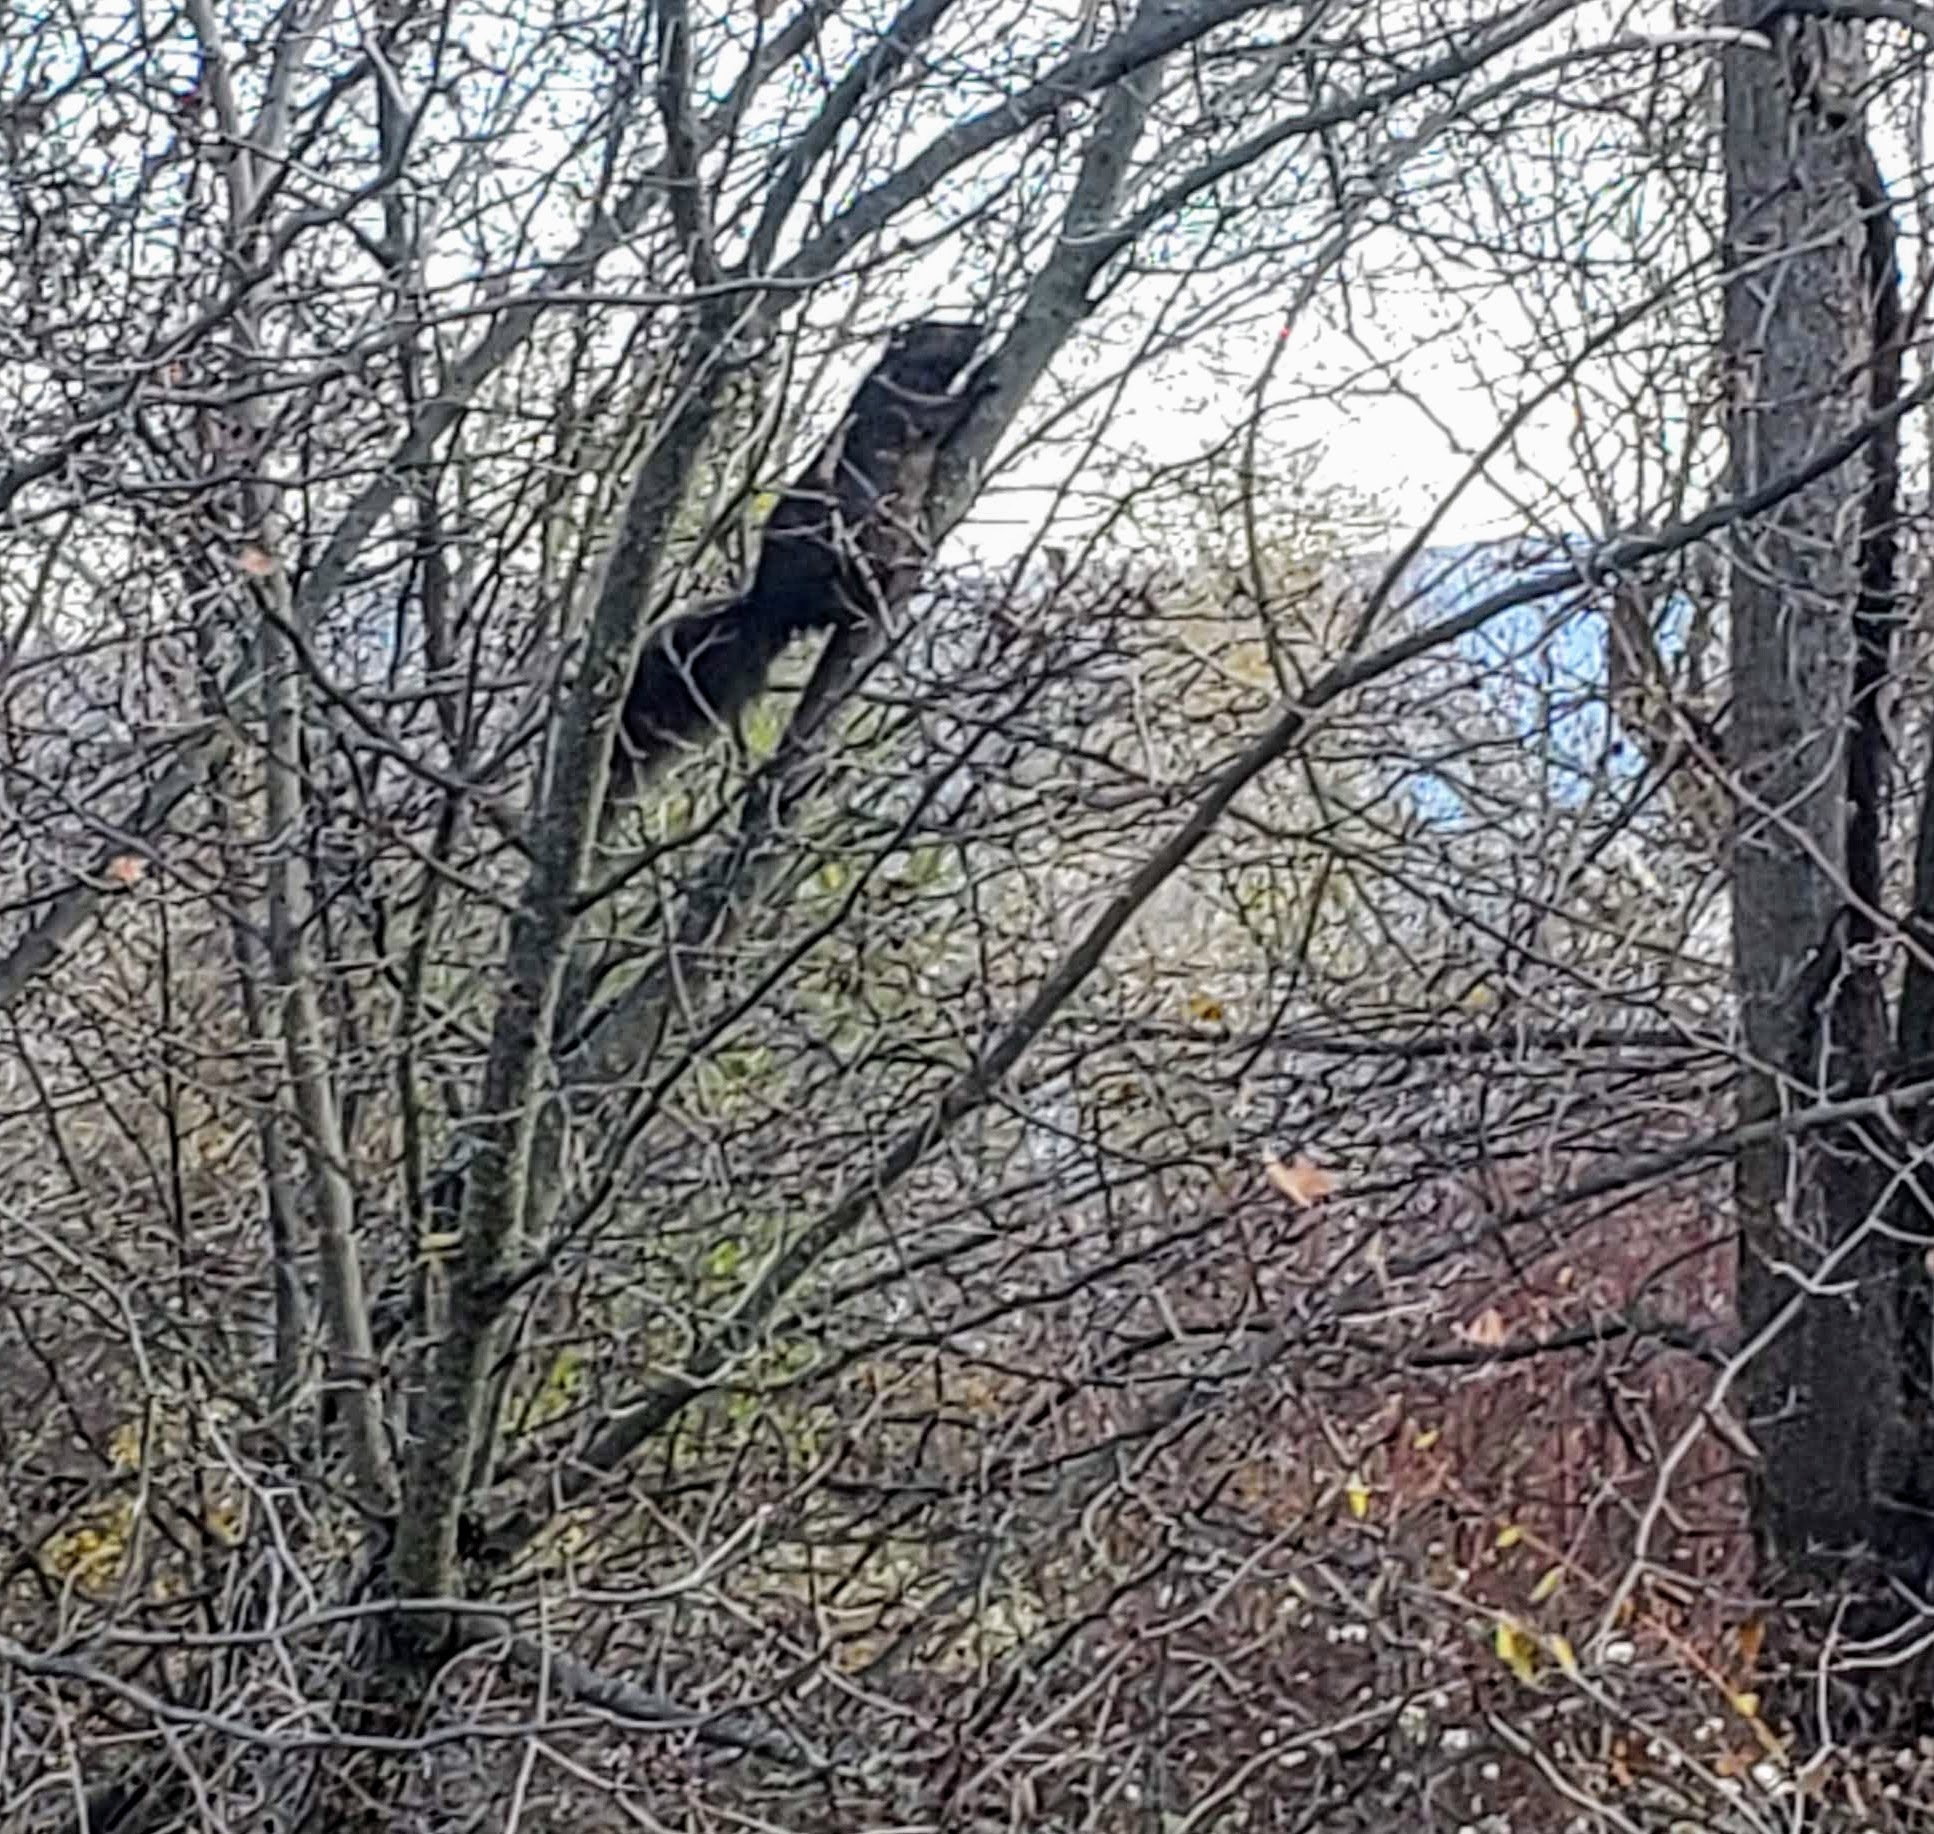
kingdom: Animalia
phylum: Chordata
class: Mammalia
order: Rodentia
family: Sciuridae
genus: Sciurus
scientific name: Sciurus carolinensis
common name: Eastern gray squirrel
